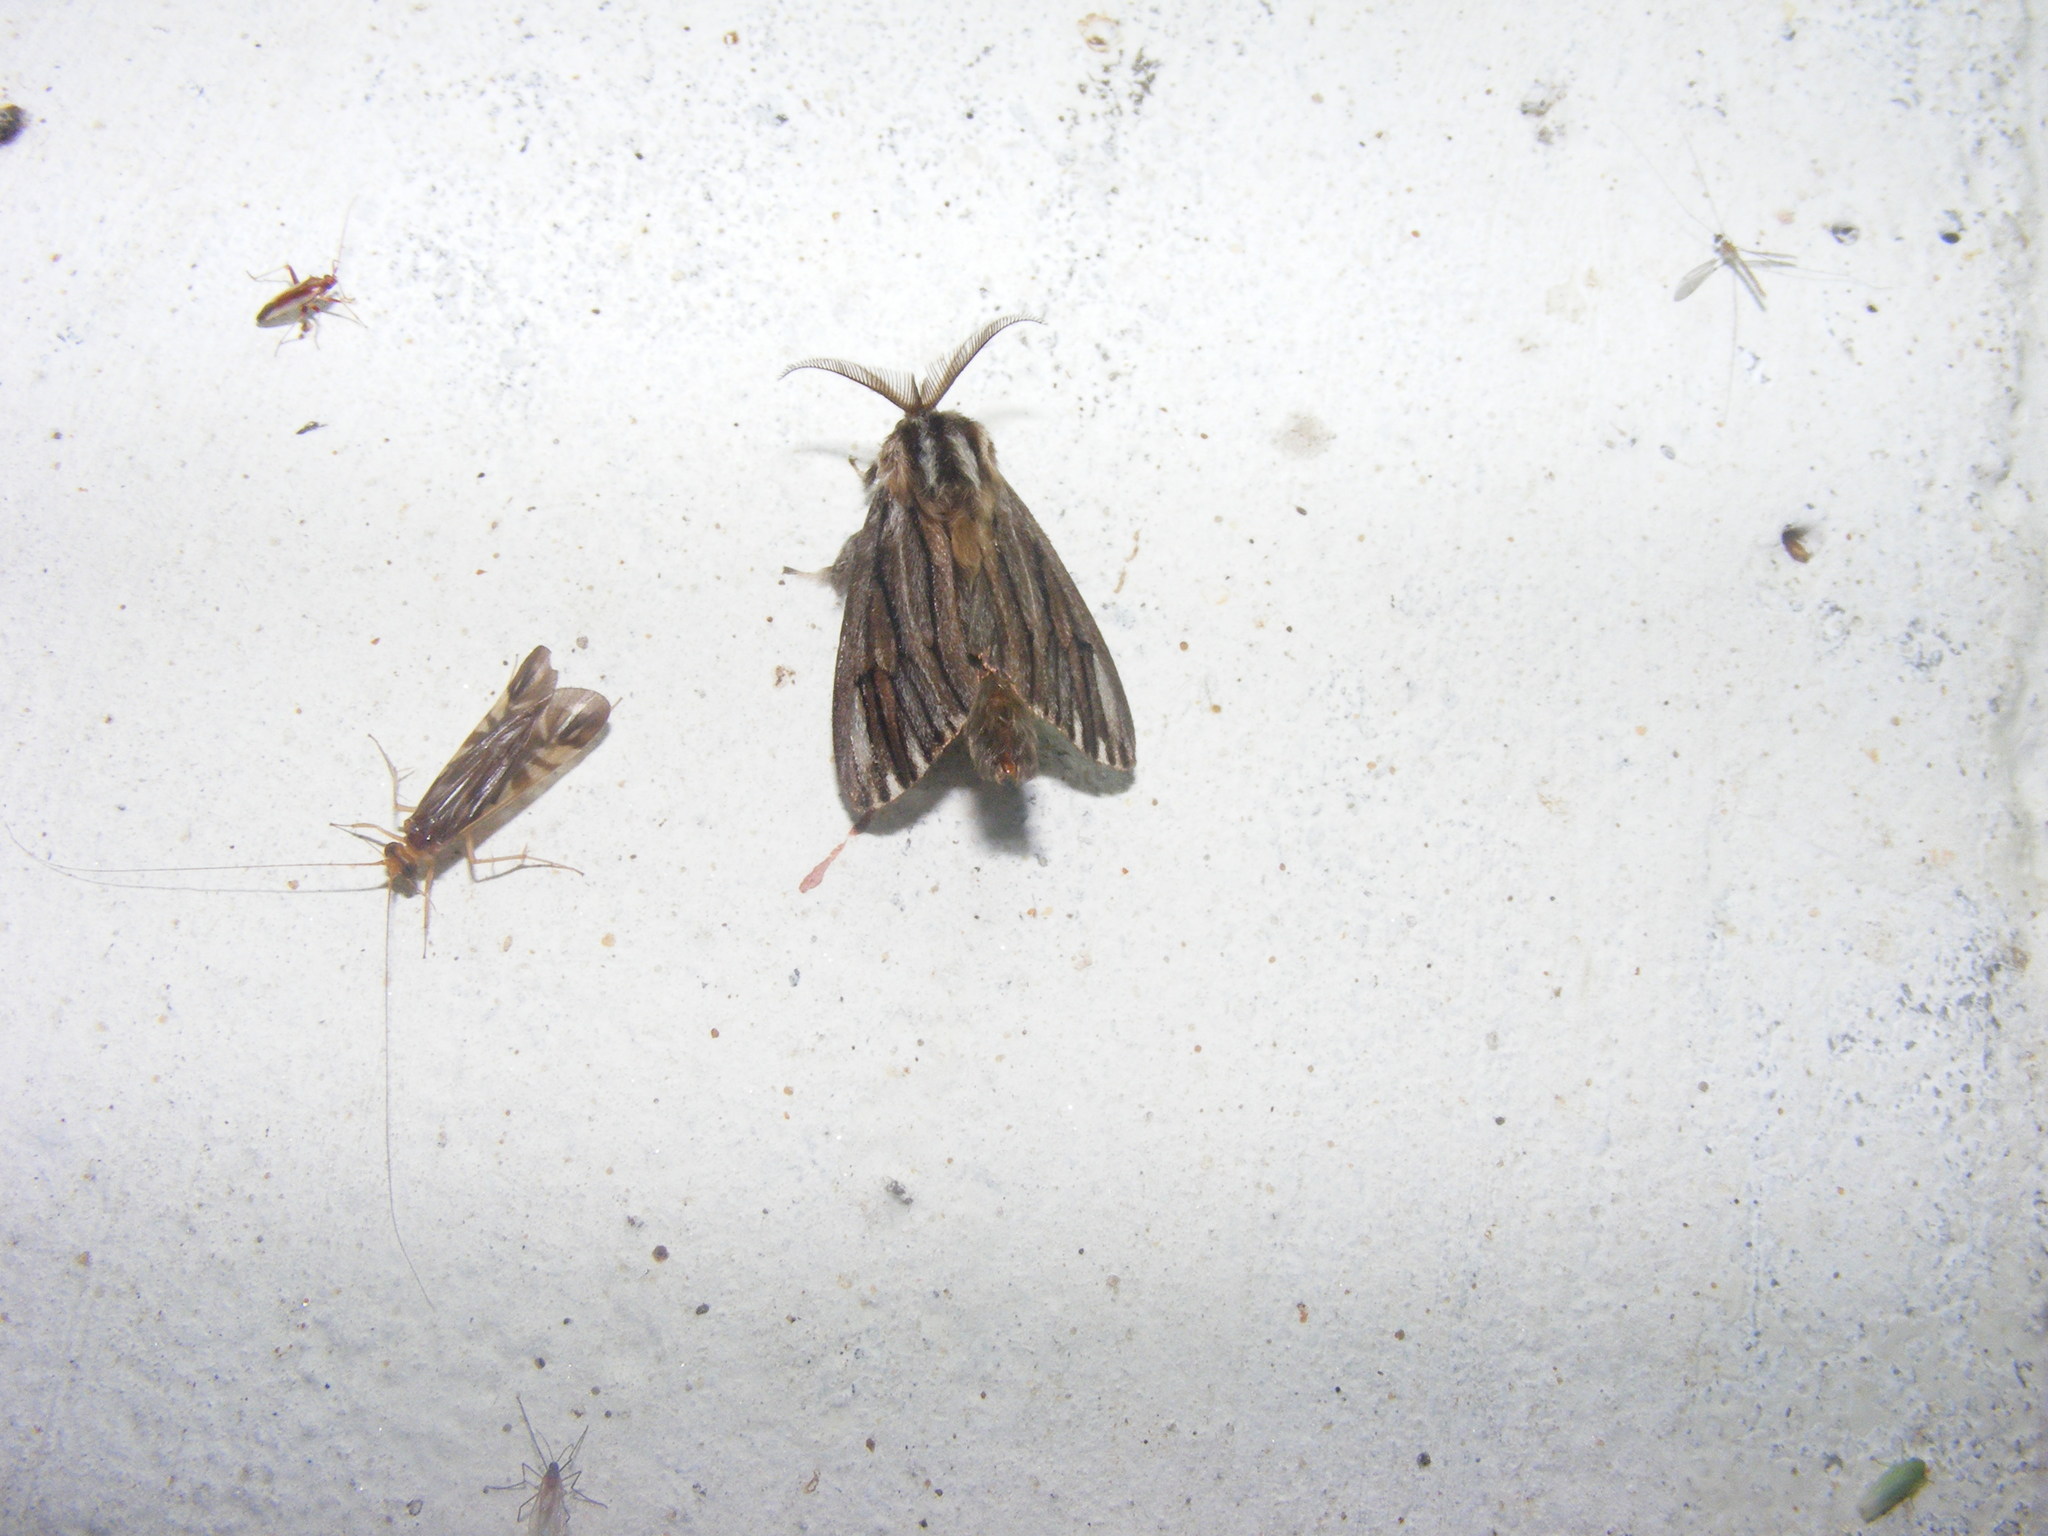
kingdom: Animalia
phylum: Arthropoda
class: Insecta
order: Lepidoptera
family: Psychidae
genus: Eumeta
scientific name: Eumeta cramerii
